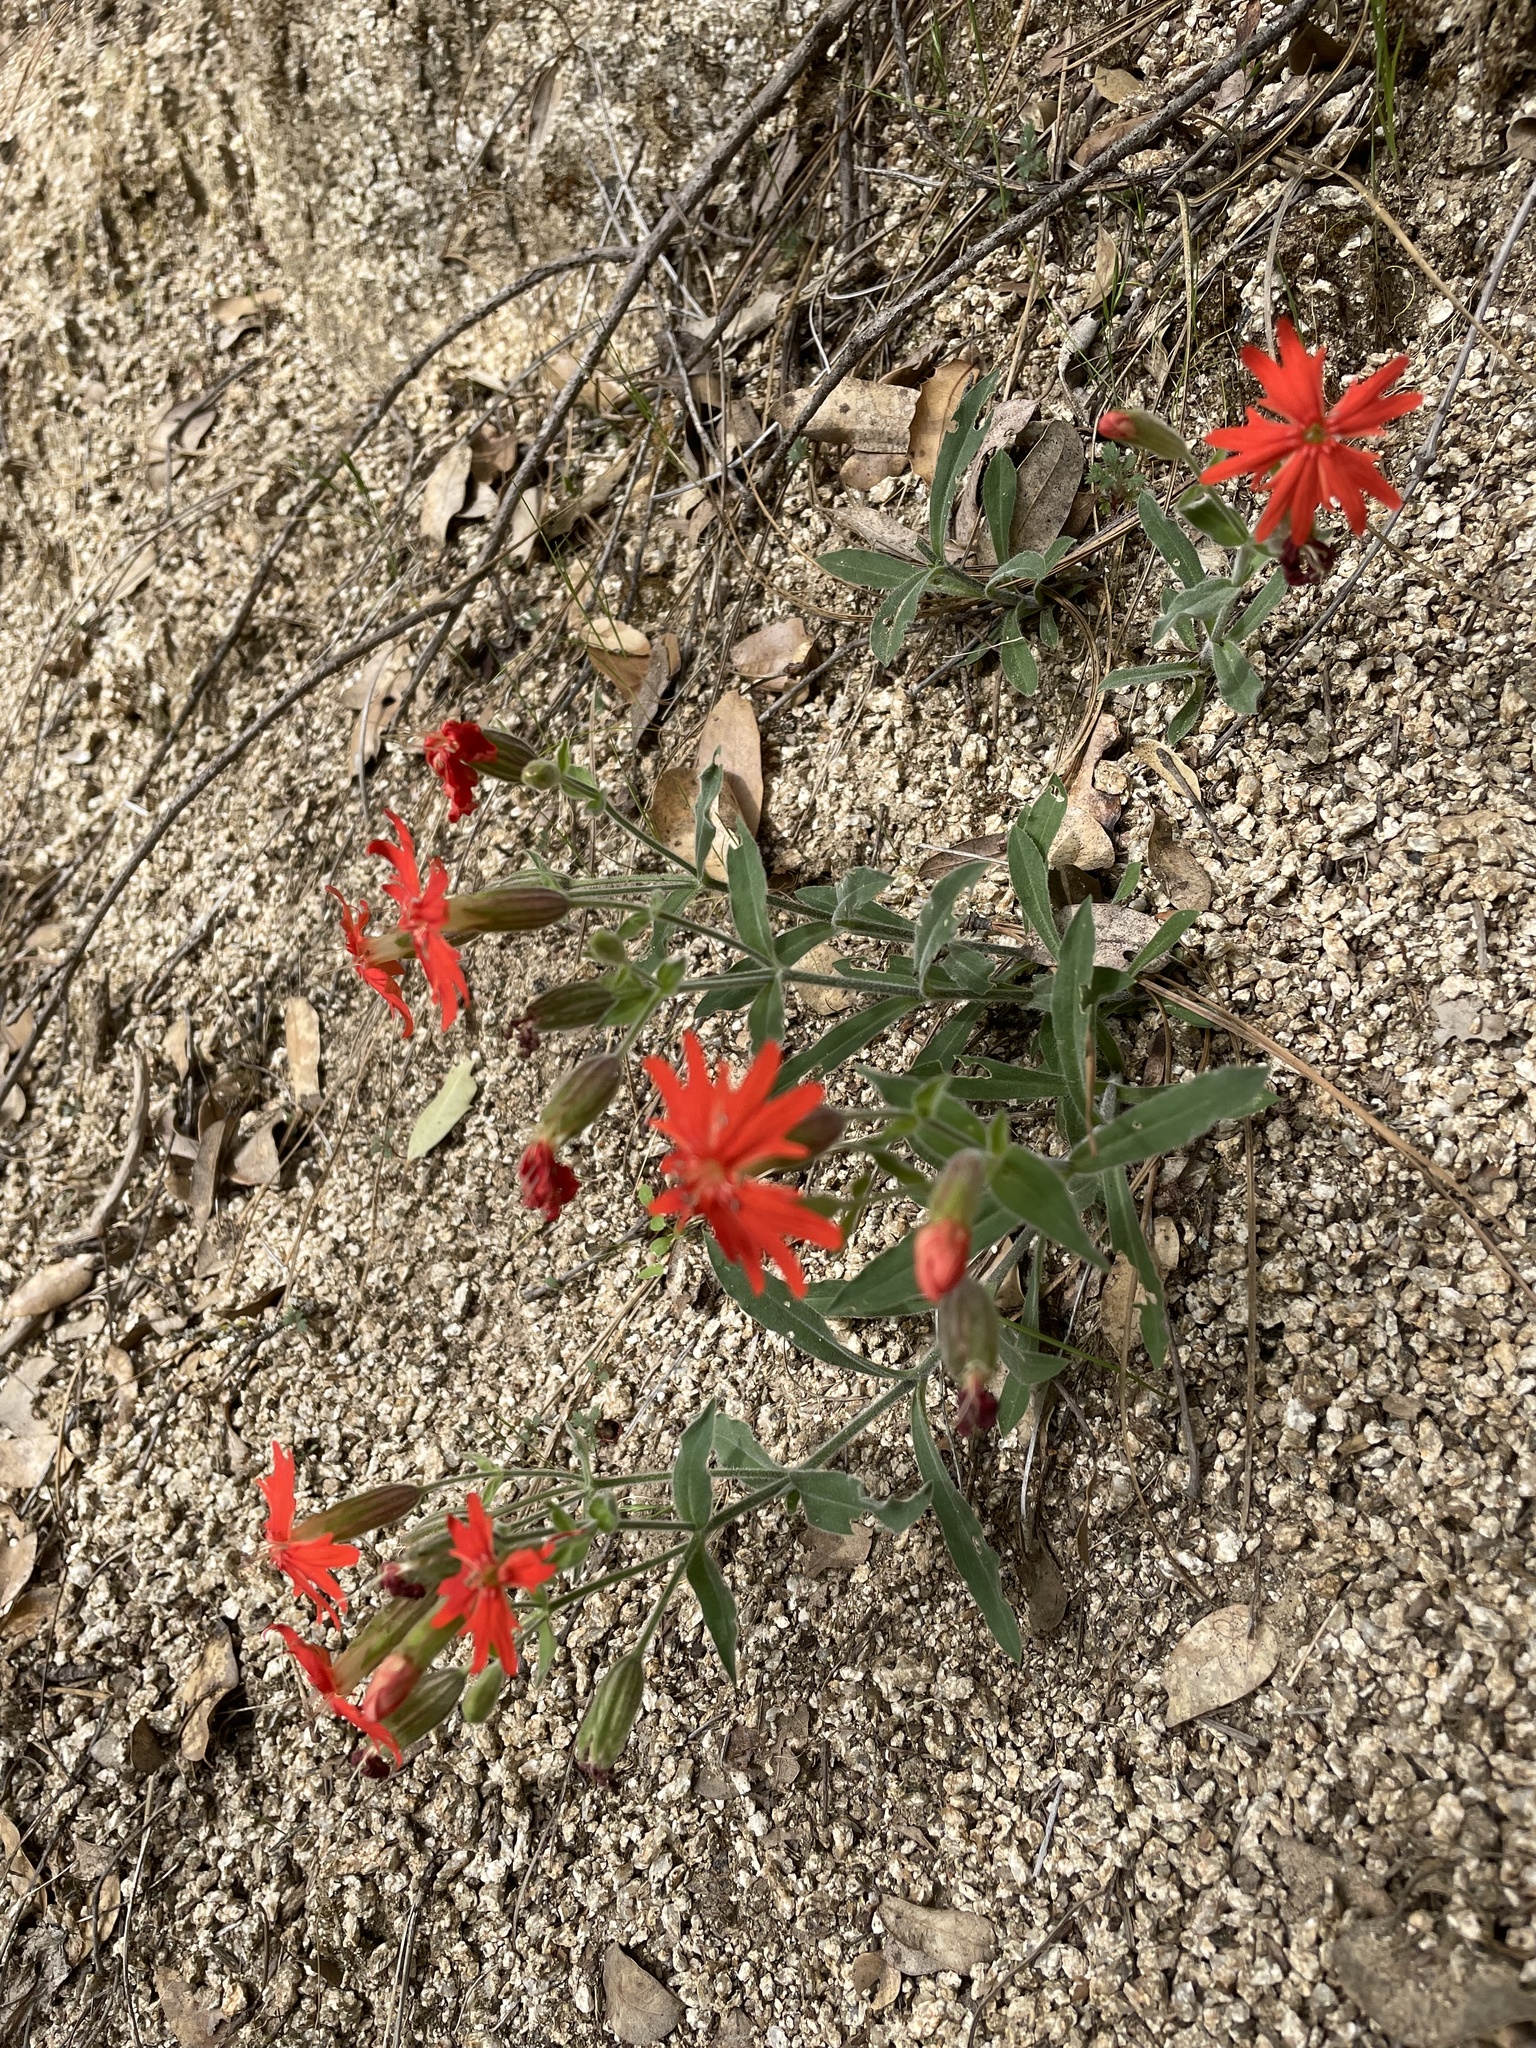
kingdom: Plantae
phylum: Tracheophyta
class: Magnoliopsida
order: Caryophyllales
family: Caryophyllaceae
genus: Silene
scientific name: Silene laciniata
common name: Indian-pink
